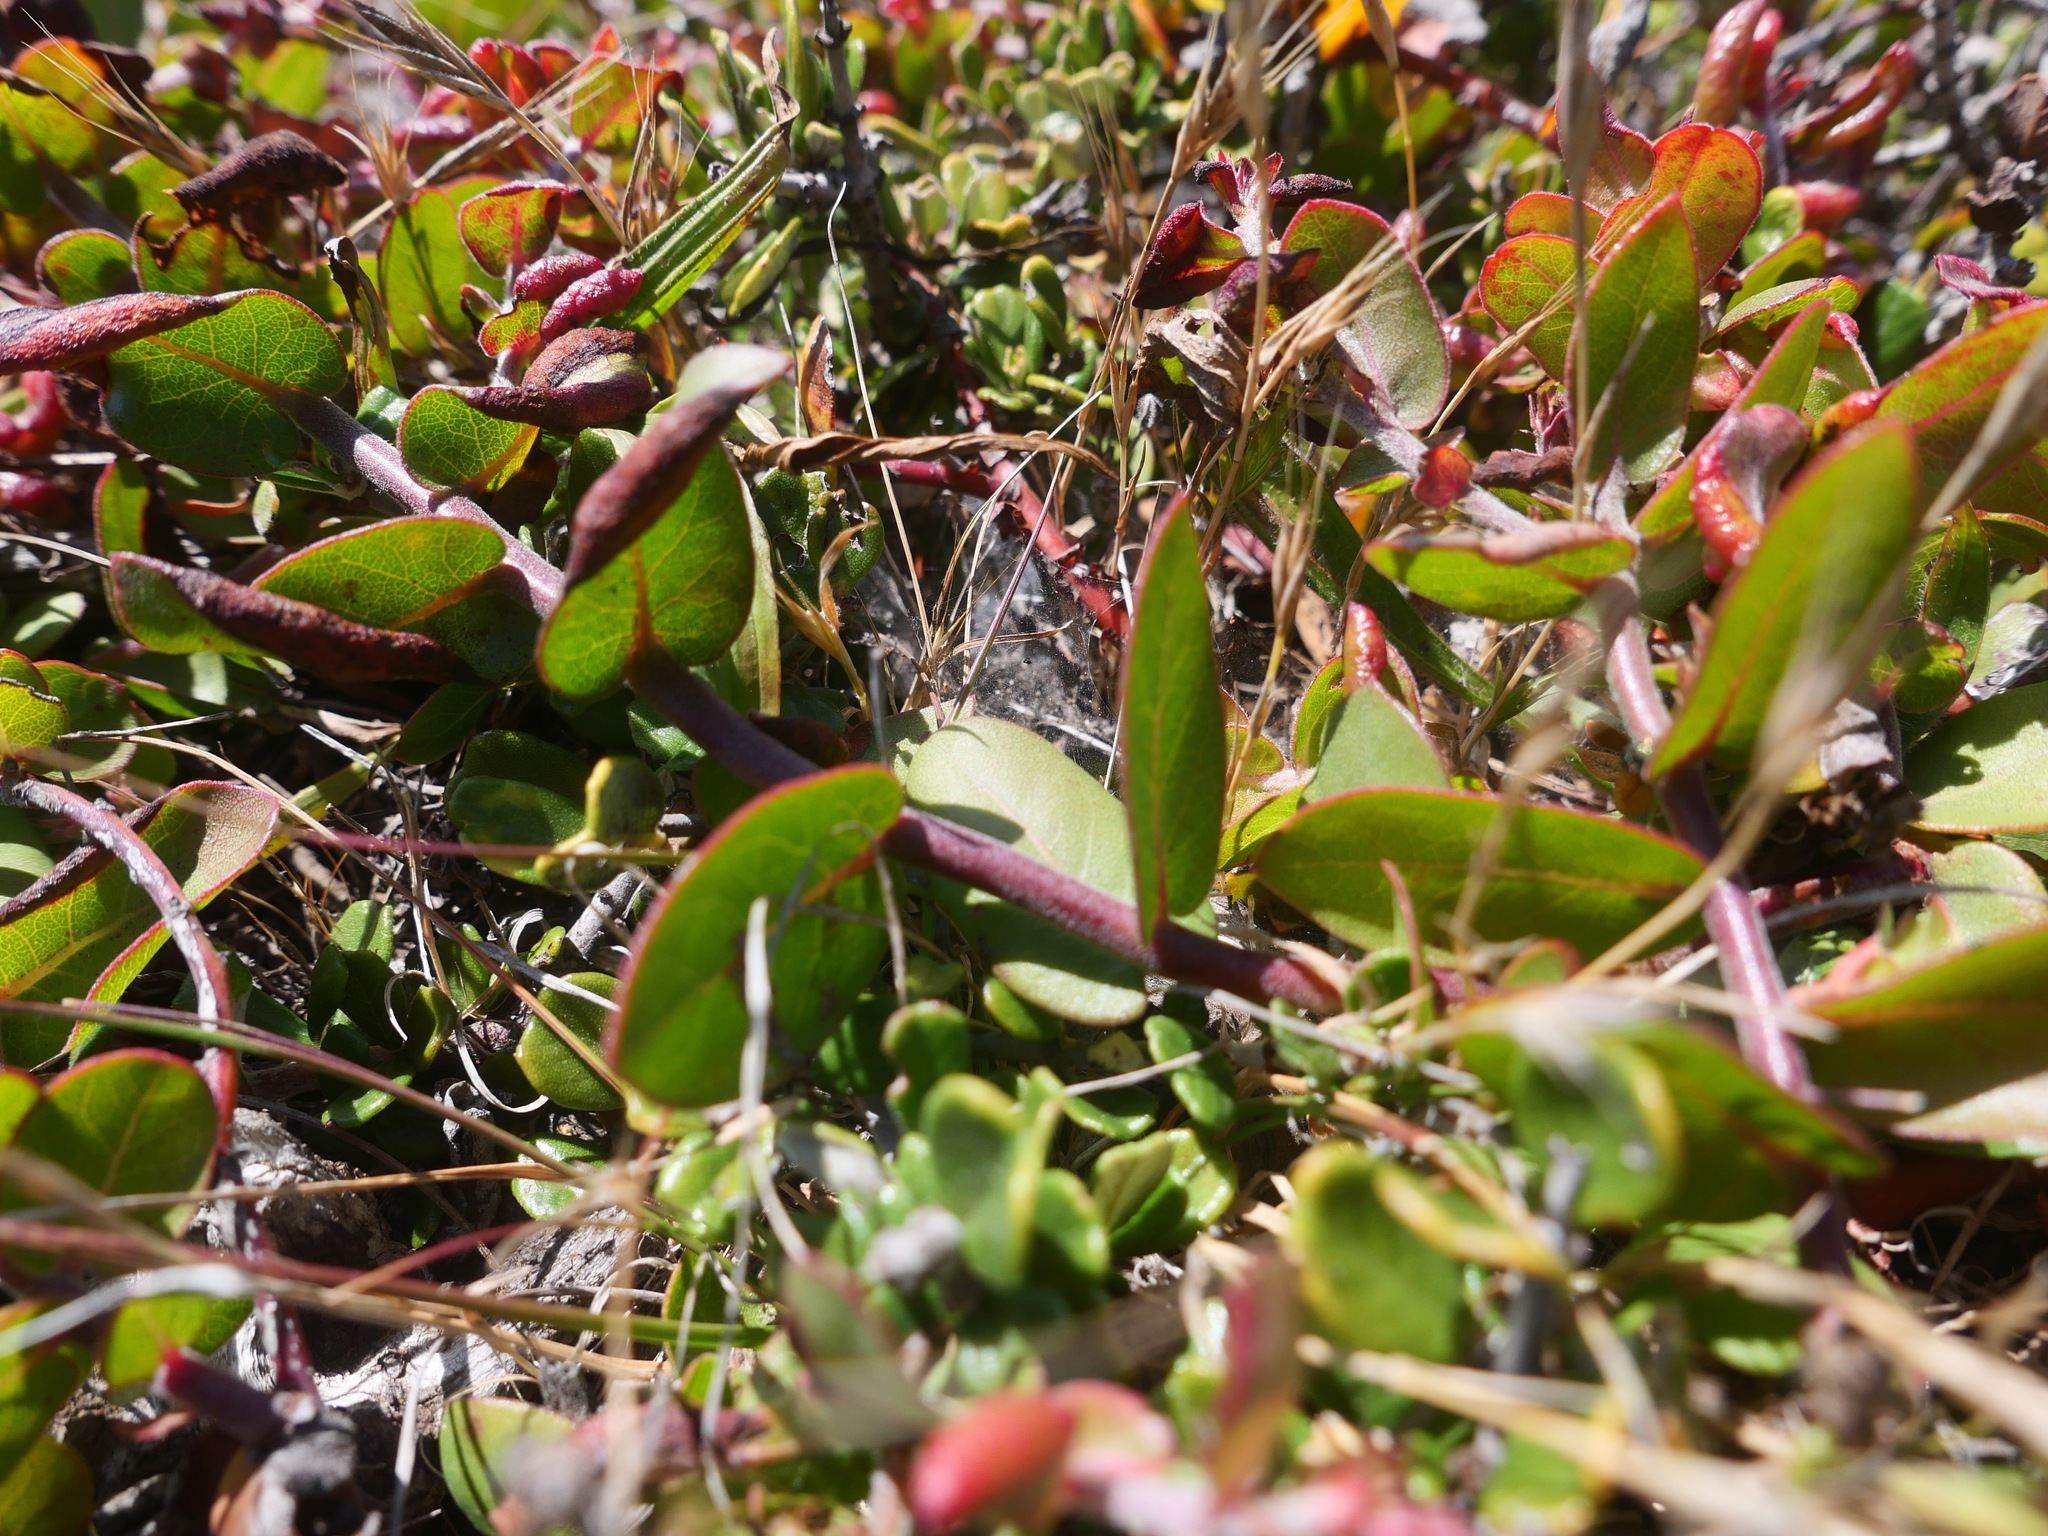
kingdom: Plantae
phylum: Tracheophyta
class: Magnoliopsida
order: Ericales
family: Ericaceae
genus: Arctostaphylos
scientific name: Arctostaphylos cruzensis
